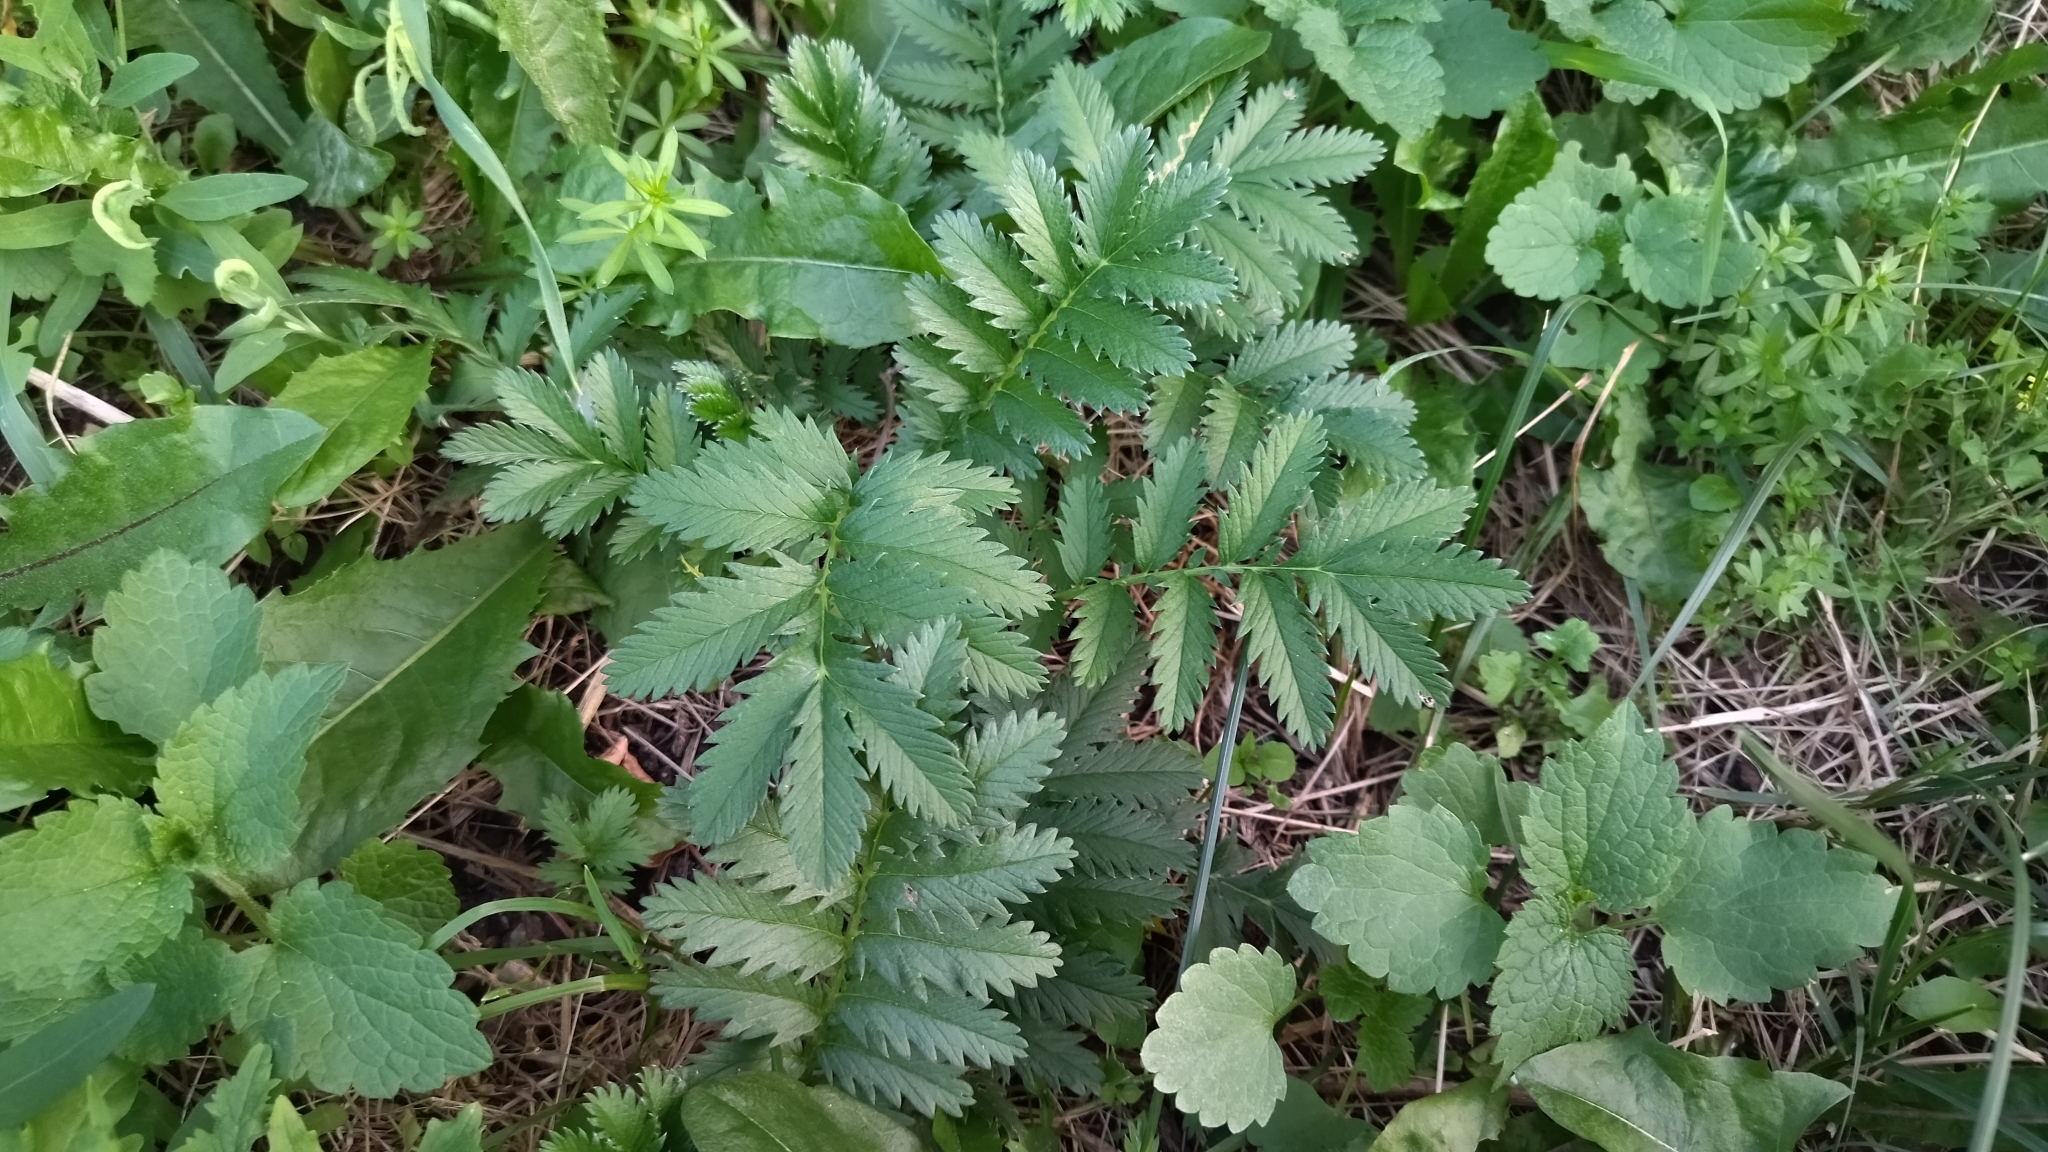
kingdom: Plantae
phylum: Tracheophyta
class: Magnoliopsida
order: Rosales
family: Rosaceae
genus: Argentina
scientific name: Argentina anserina
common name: Common silverweed
